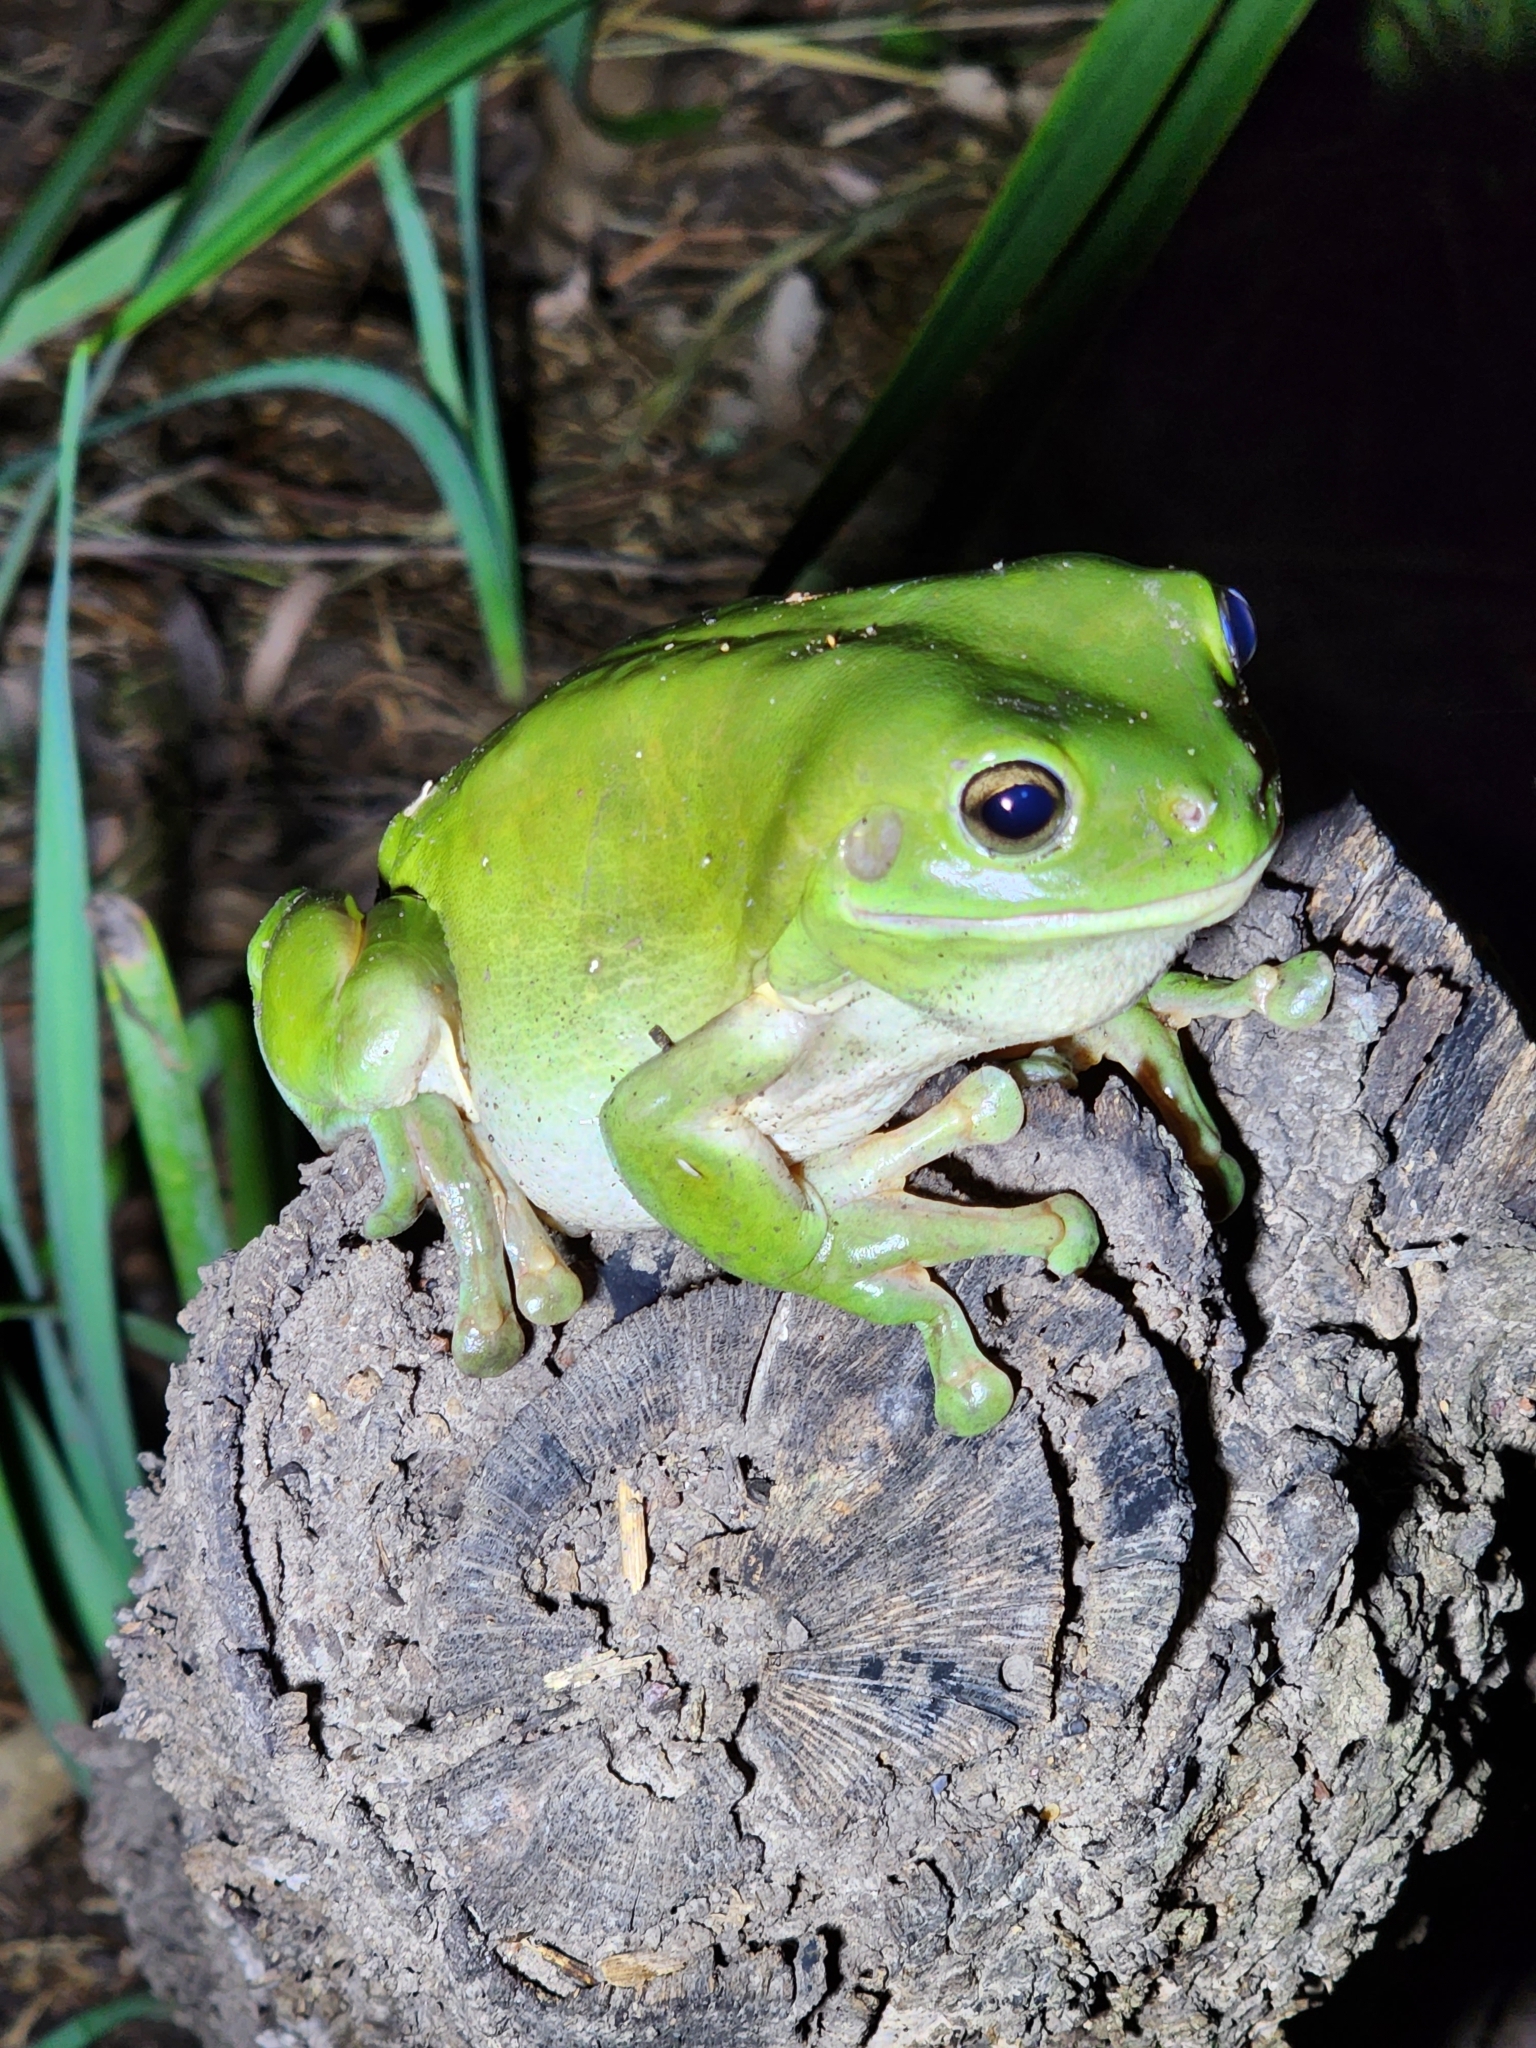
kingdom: Animalia
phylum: Chordata
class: Amphibia
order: Anura
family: Pelodryadidae
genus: Ranoidea
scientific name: Ranoidea caerulea
